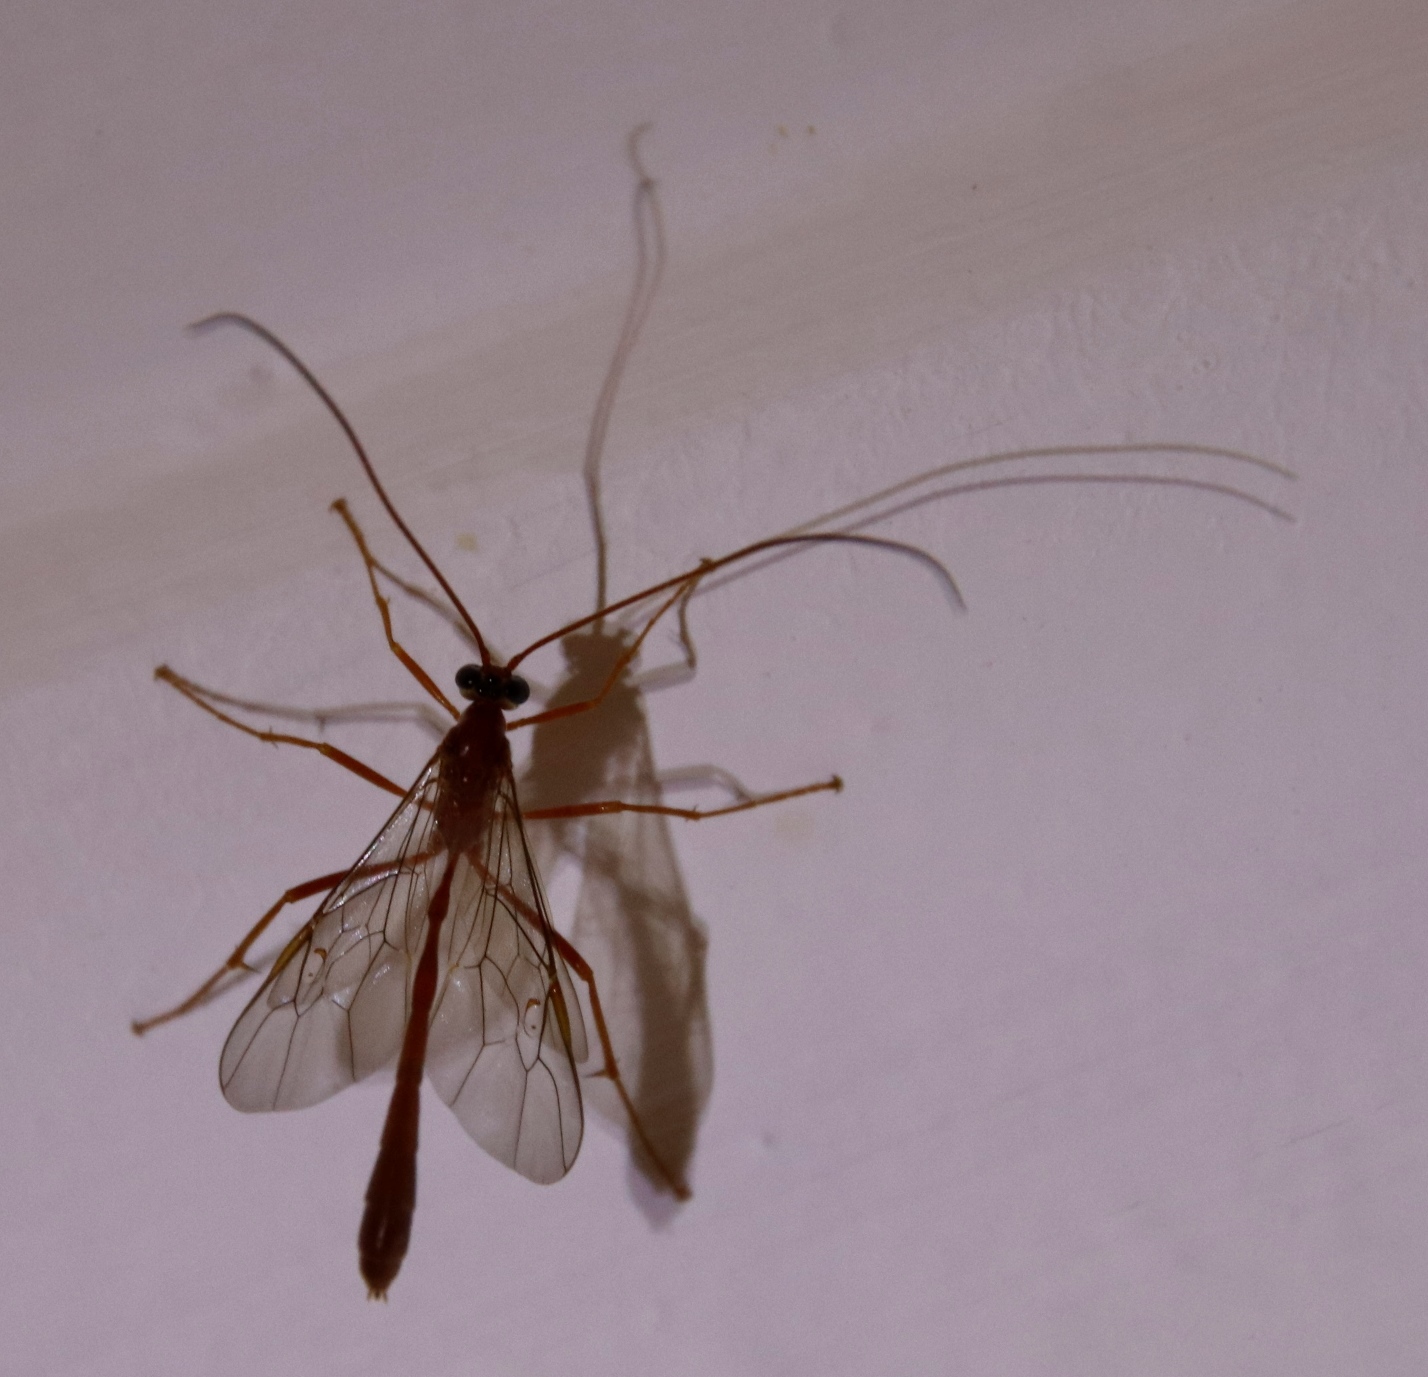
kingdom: Animalia
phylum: Arthropoda
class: Insecta
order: Hymenoptera
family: Ichneumonidae
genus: Enicospilus
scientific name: Enicospilus pacificus
